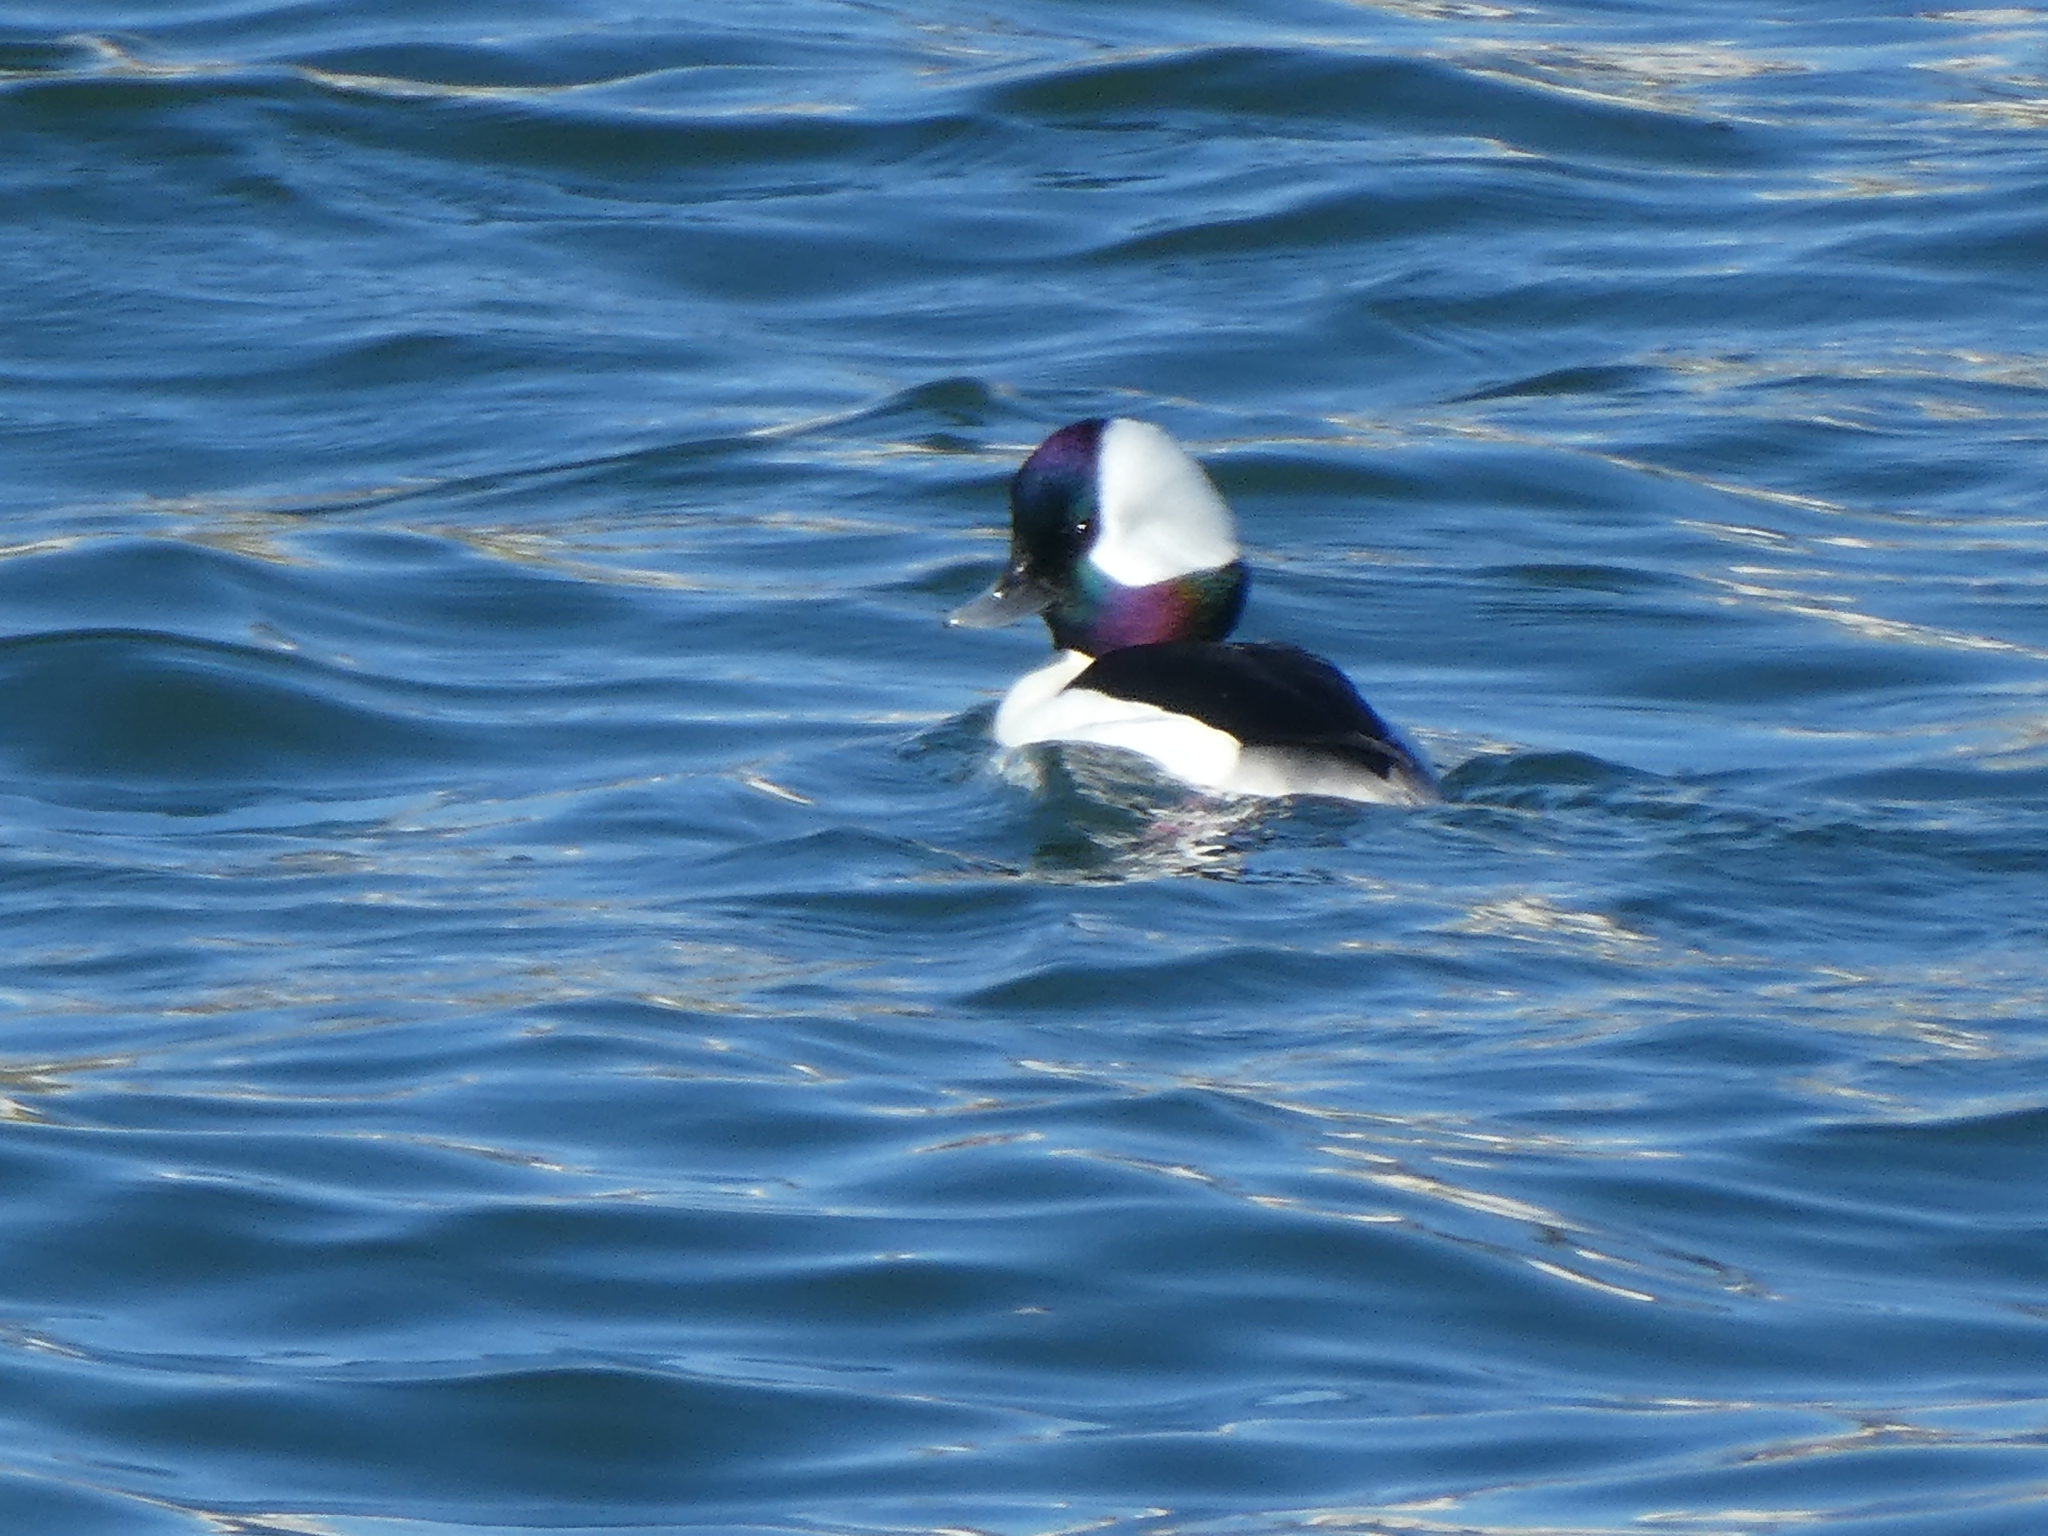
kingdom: Animalia
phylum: Chordata
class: Aves
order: Anseriformes
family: Anatidae
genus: Bucephala
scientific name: Bucephala albeola
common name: Bufflehead
